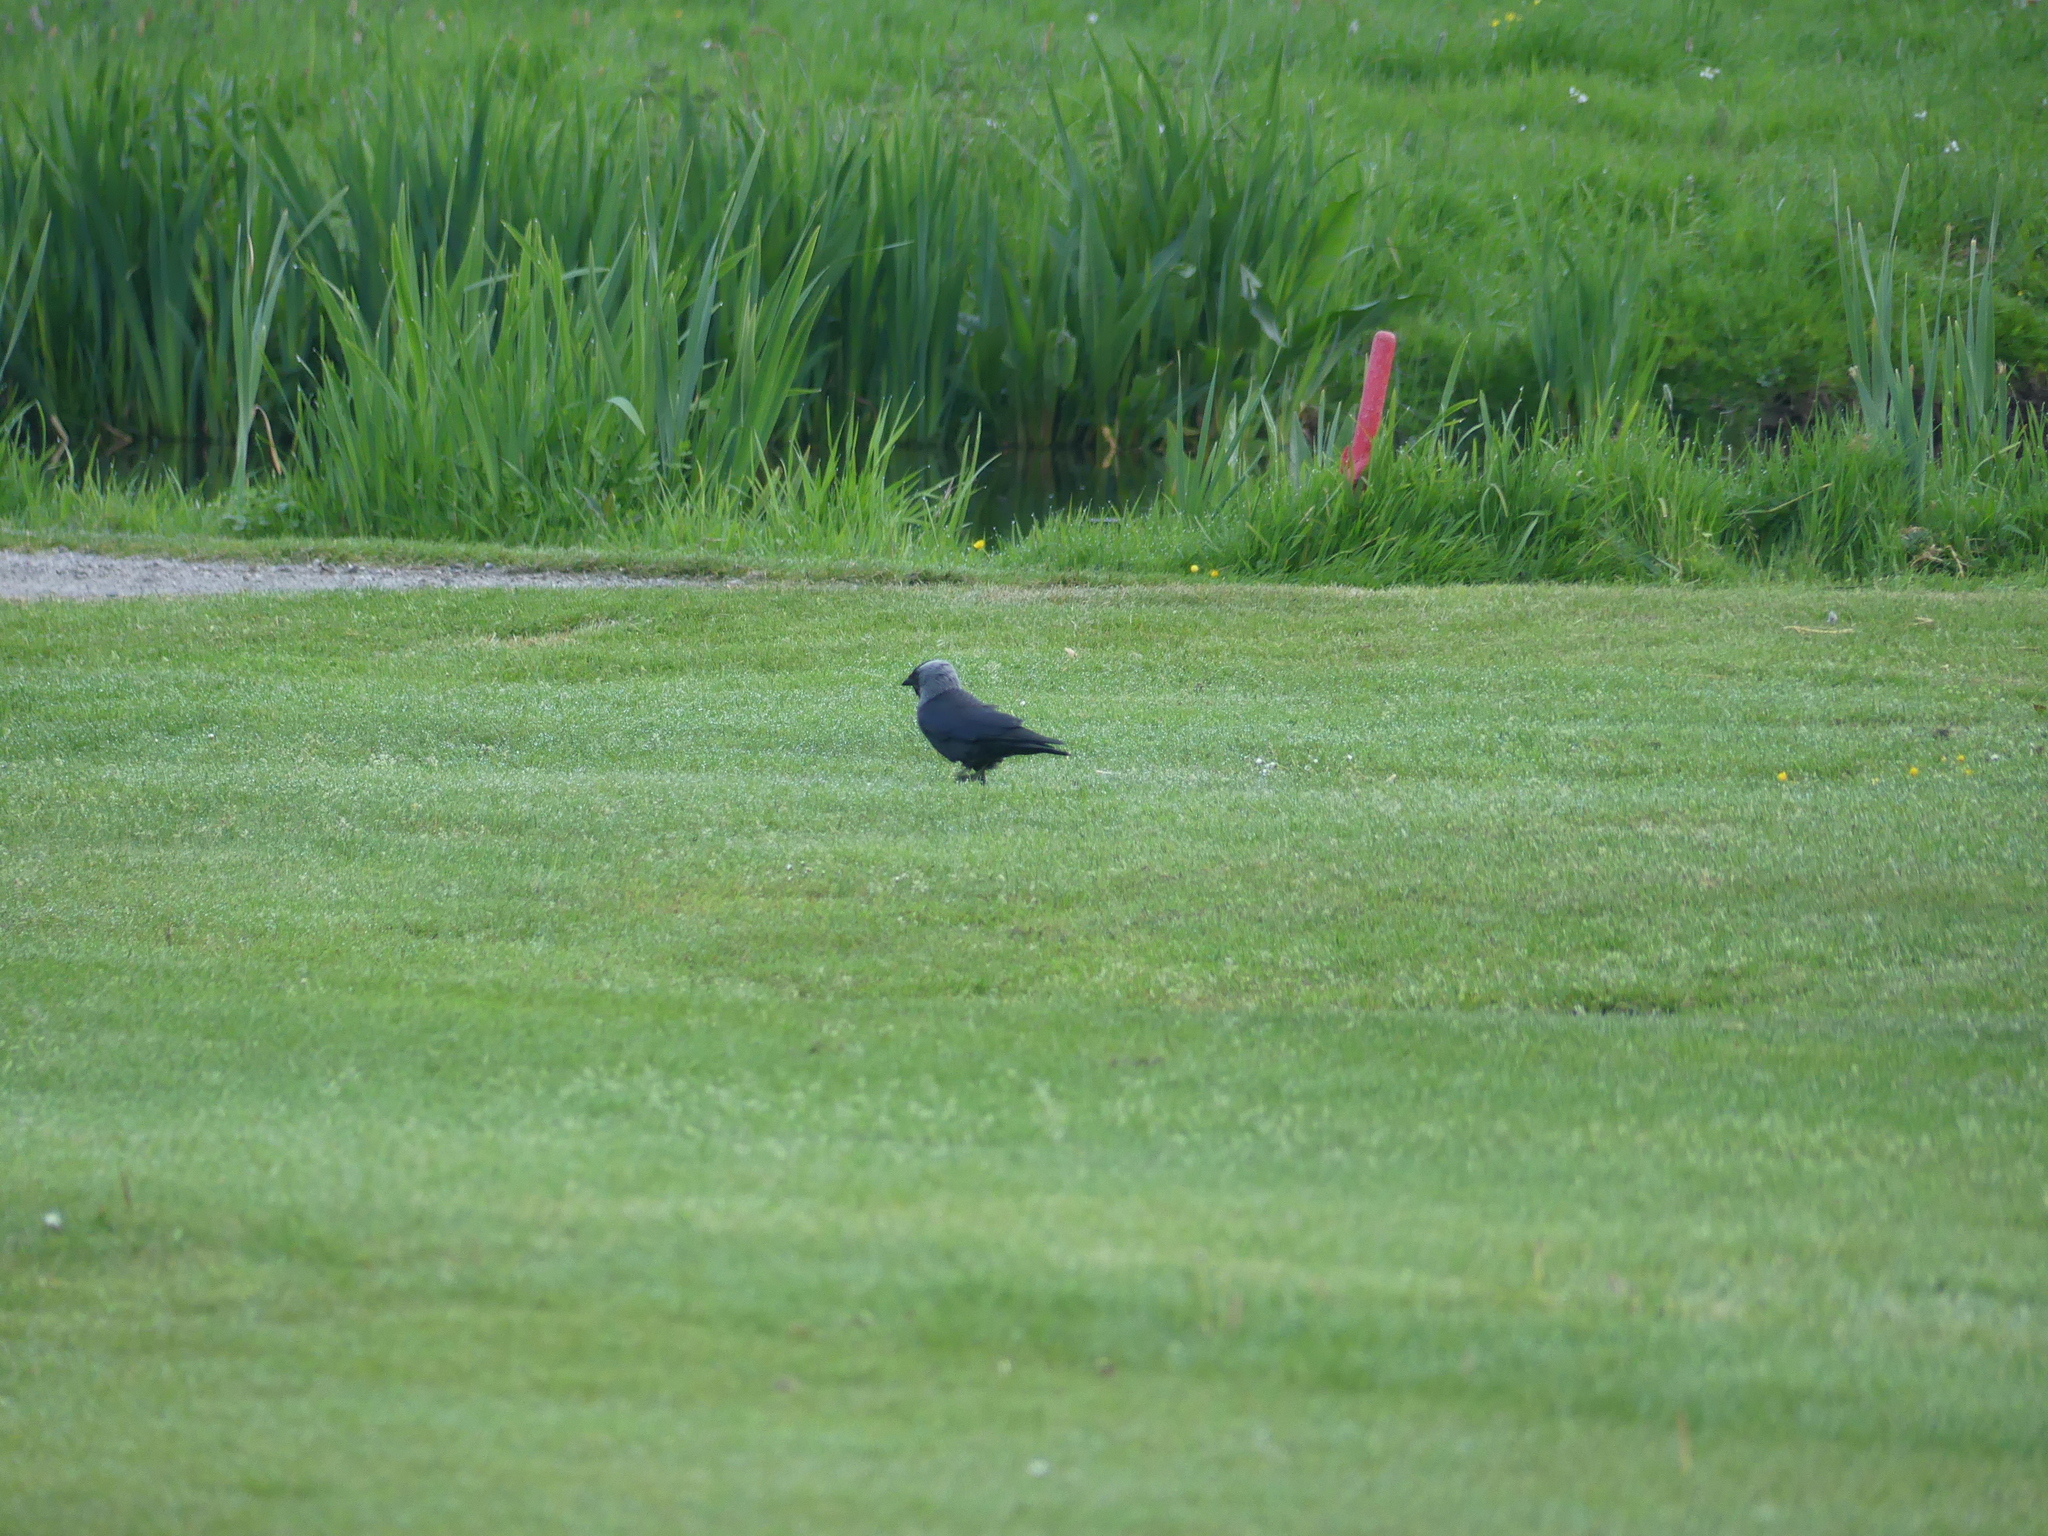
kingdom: Animalia
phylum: Chordata
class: Aves
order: Passeriformes
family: Corvidae
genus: Coloeus
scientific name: Coloeus monedula
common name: Western jackdaw
